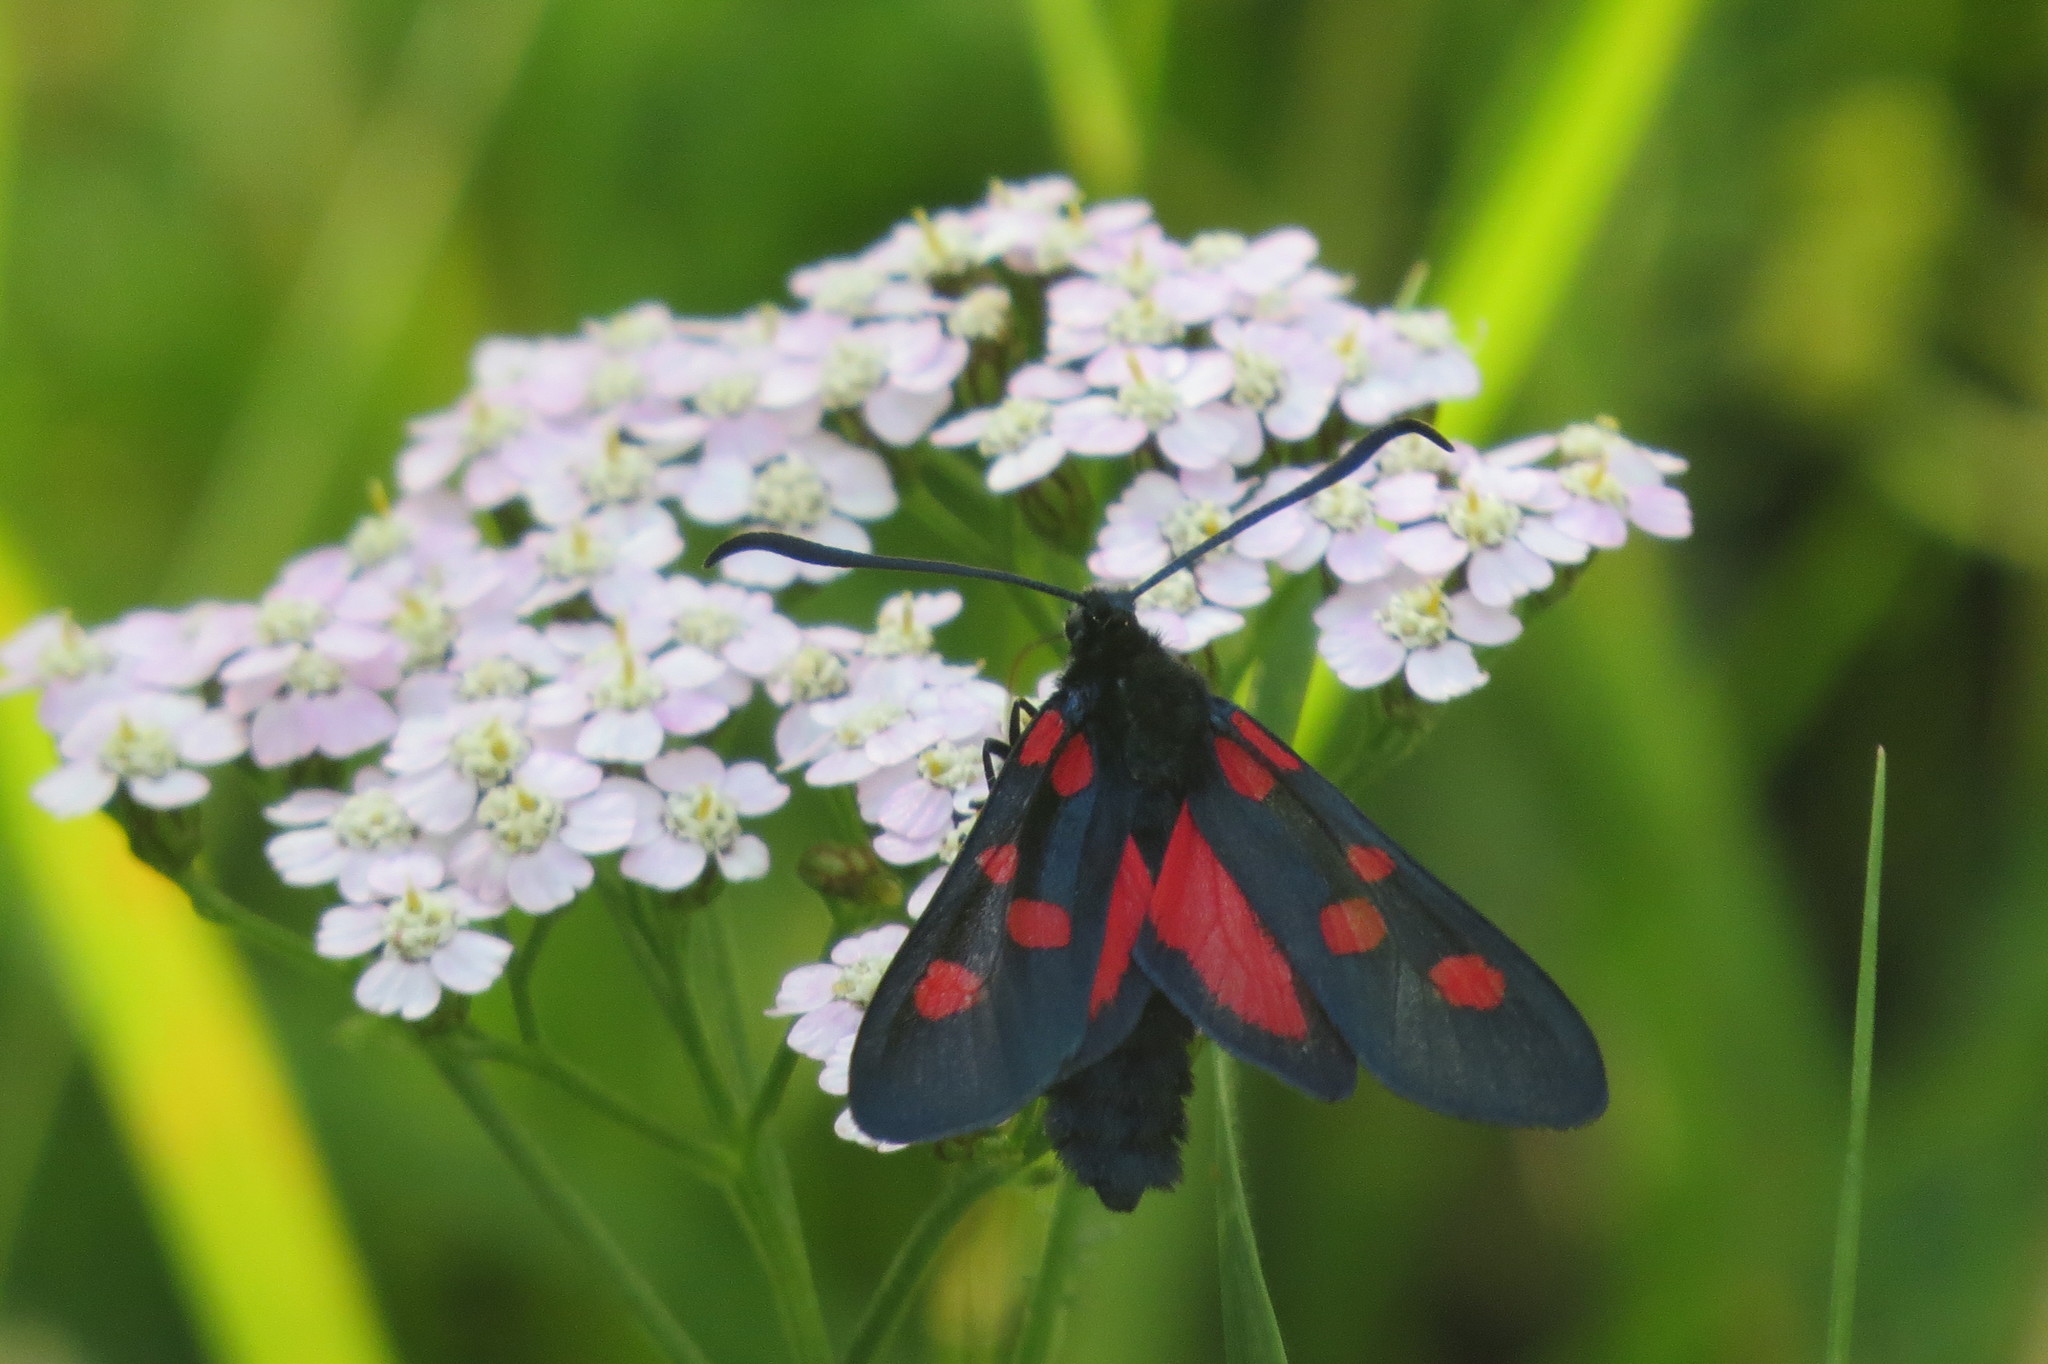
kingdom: Animalia
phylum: Arthropoda
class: Insecta
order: Lepidoptera
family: Zygaenidae
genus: Zygaena
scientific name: Zygaena lonicerae
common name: Narrow-bordered five-spot burnet
